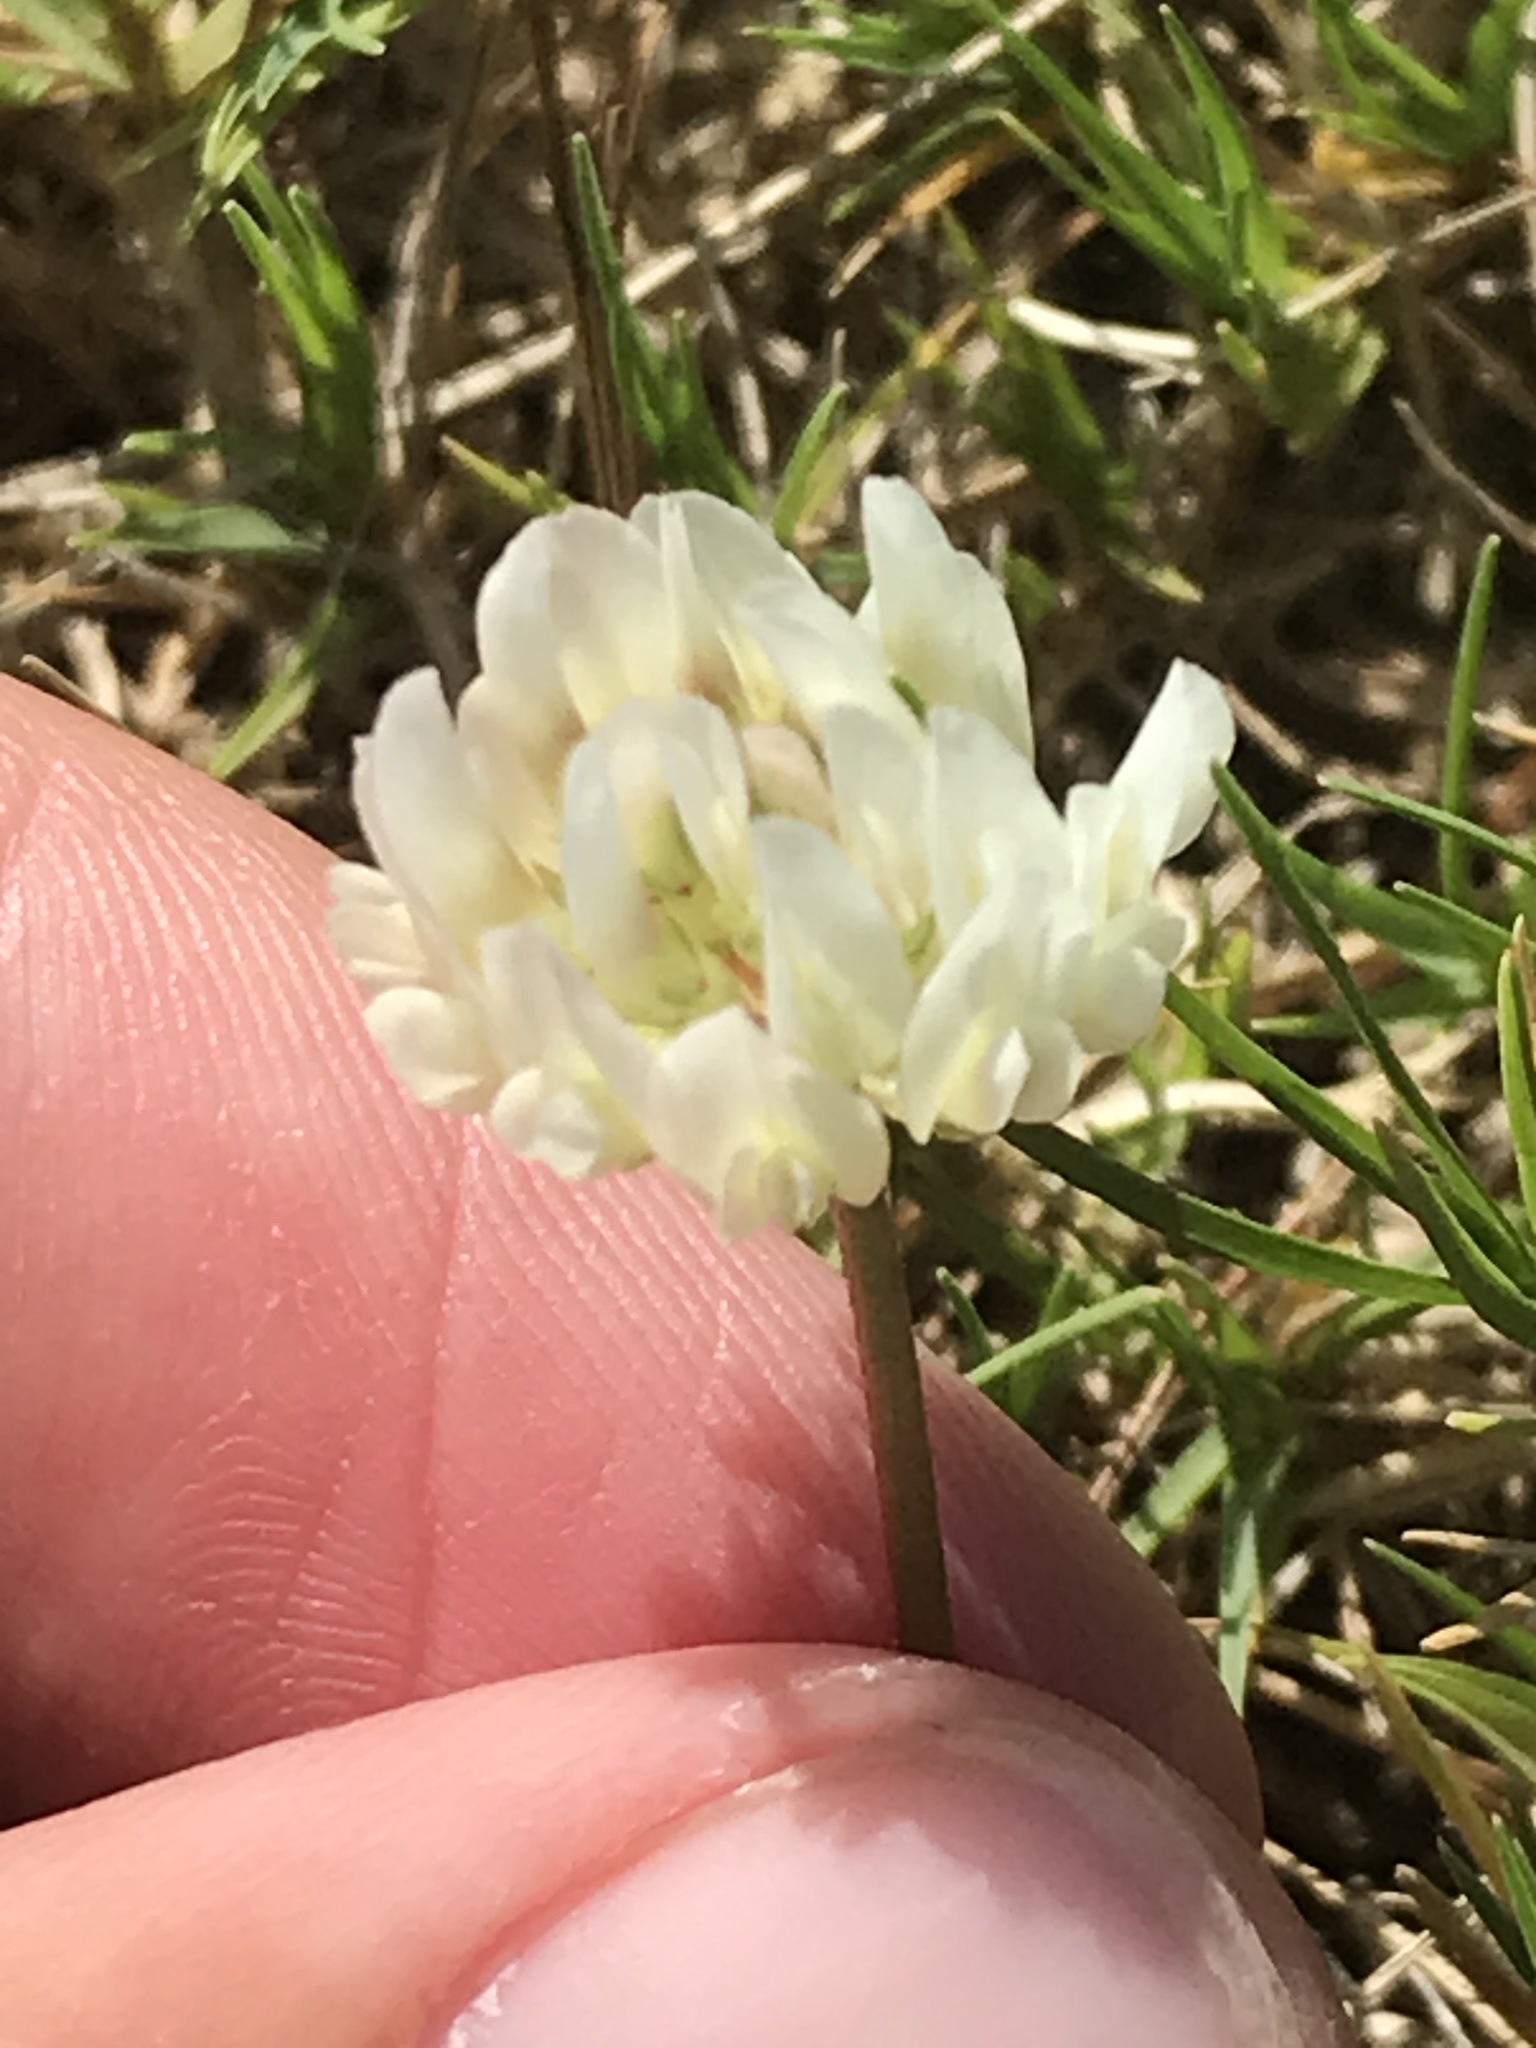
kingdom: Plantae
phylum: Tracheophyta
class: Magnoliopsida
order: Fabales
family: Fabaceae
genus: Trifolium
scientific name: Trifolium repens
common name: White clover
